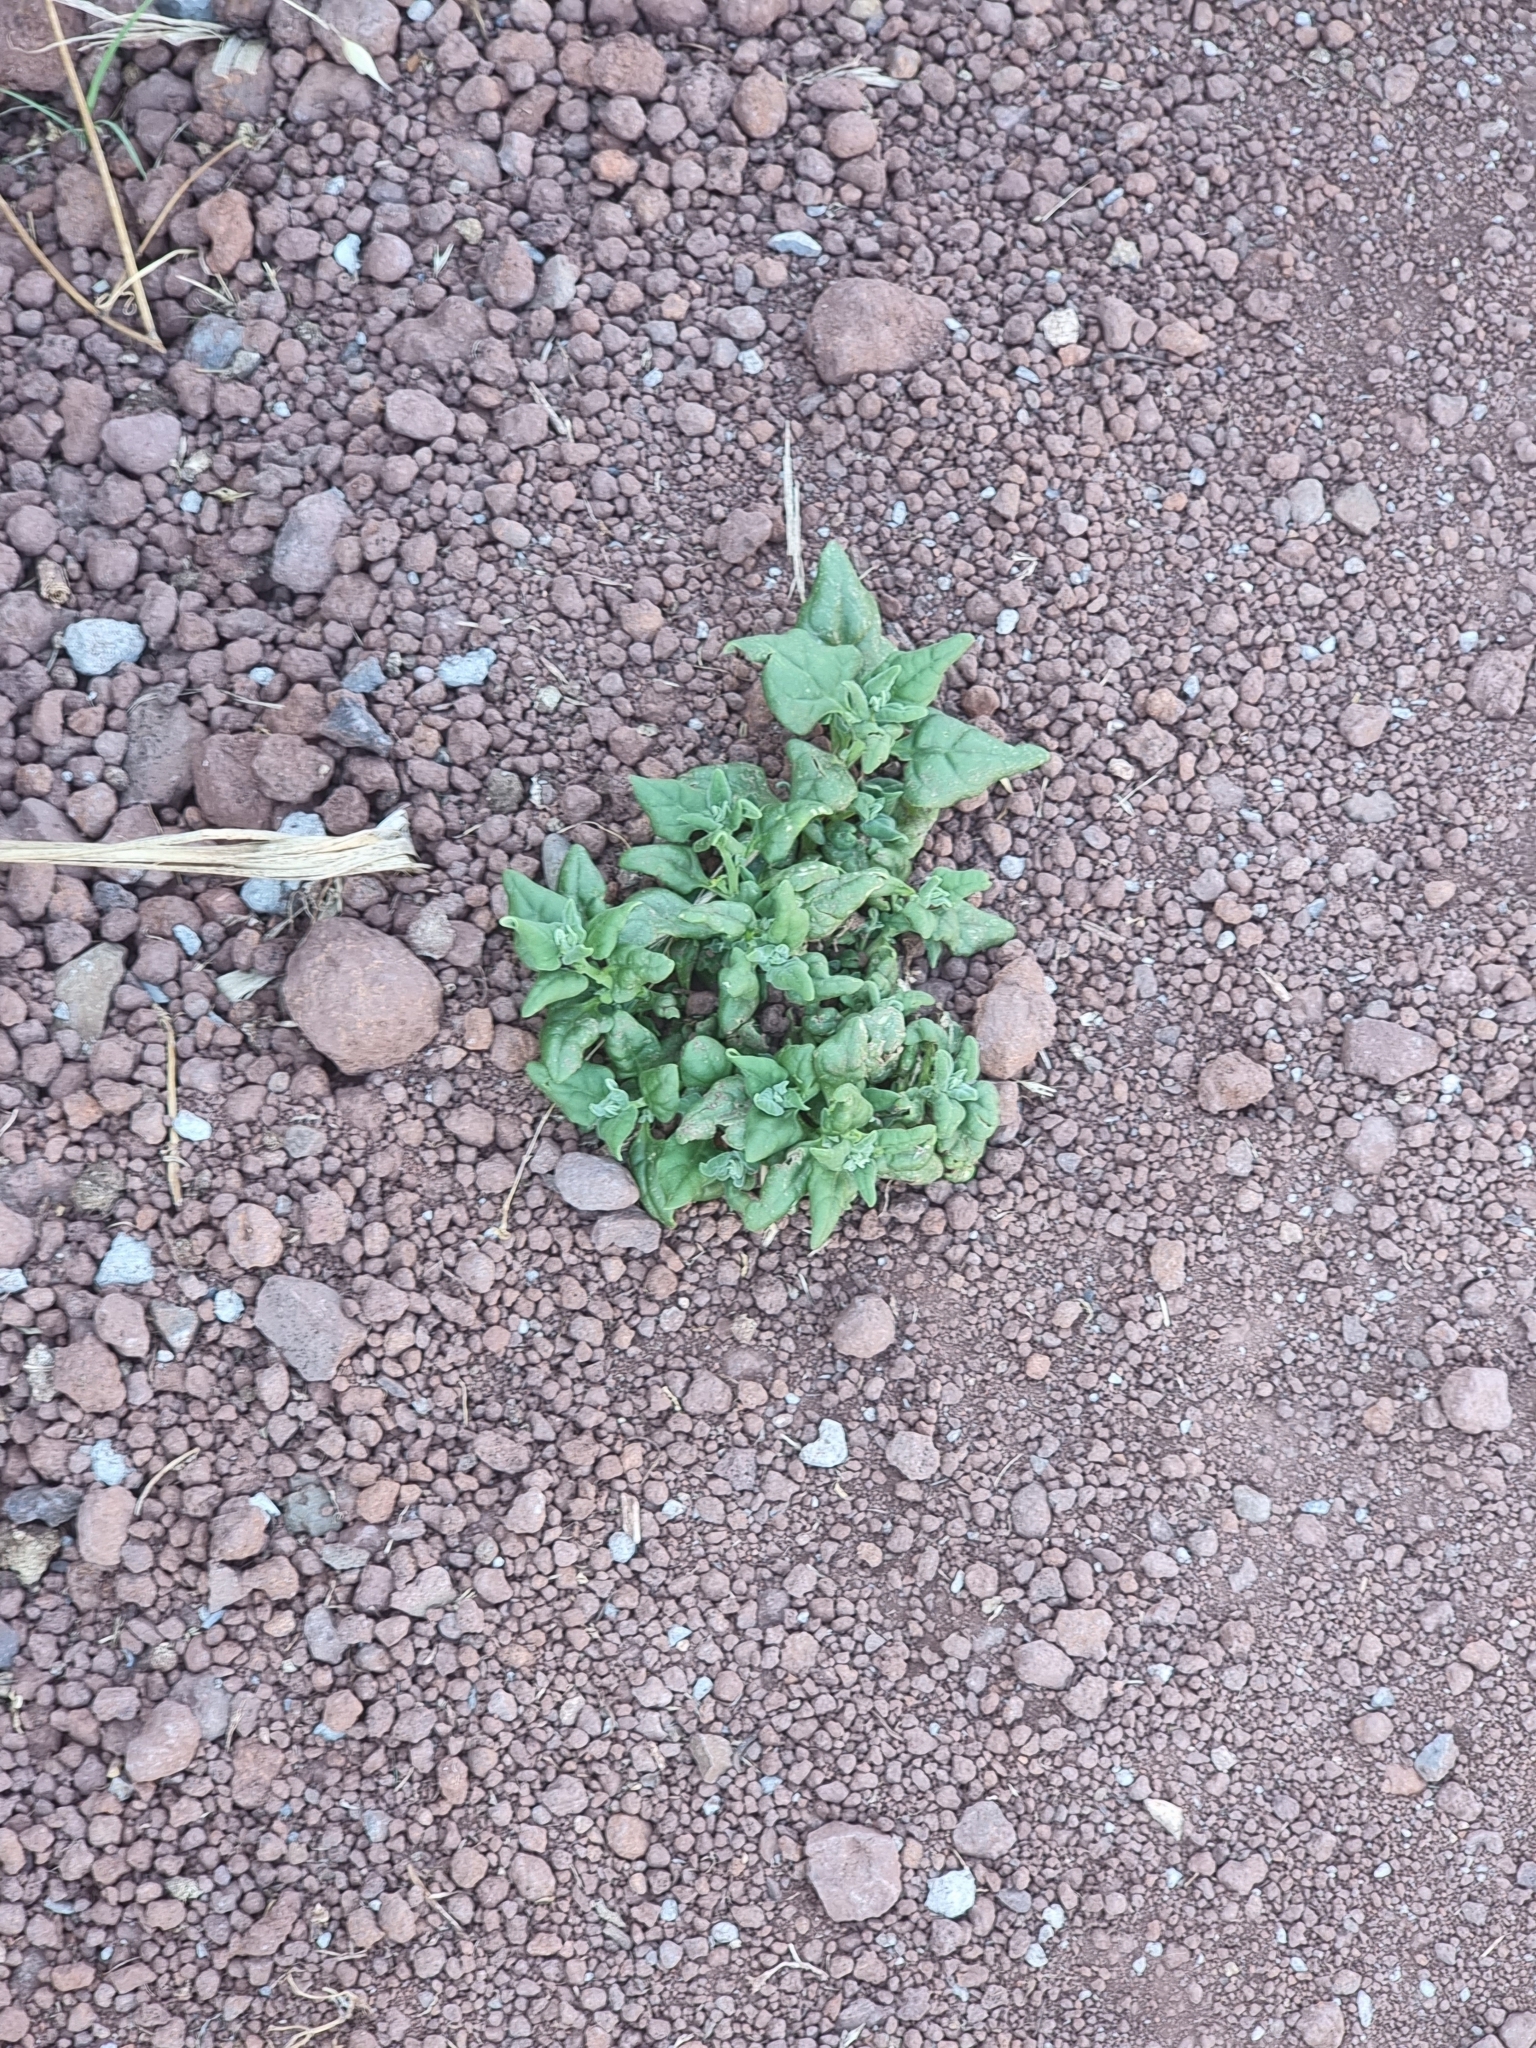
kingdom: Plantae
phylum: Tracheophyta
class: Magnoliopsida
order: Caryophyllales
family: Aizoaceae
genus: Tetragonia
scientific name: Tetragonia tetragonoides
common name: New zealand-spinach
